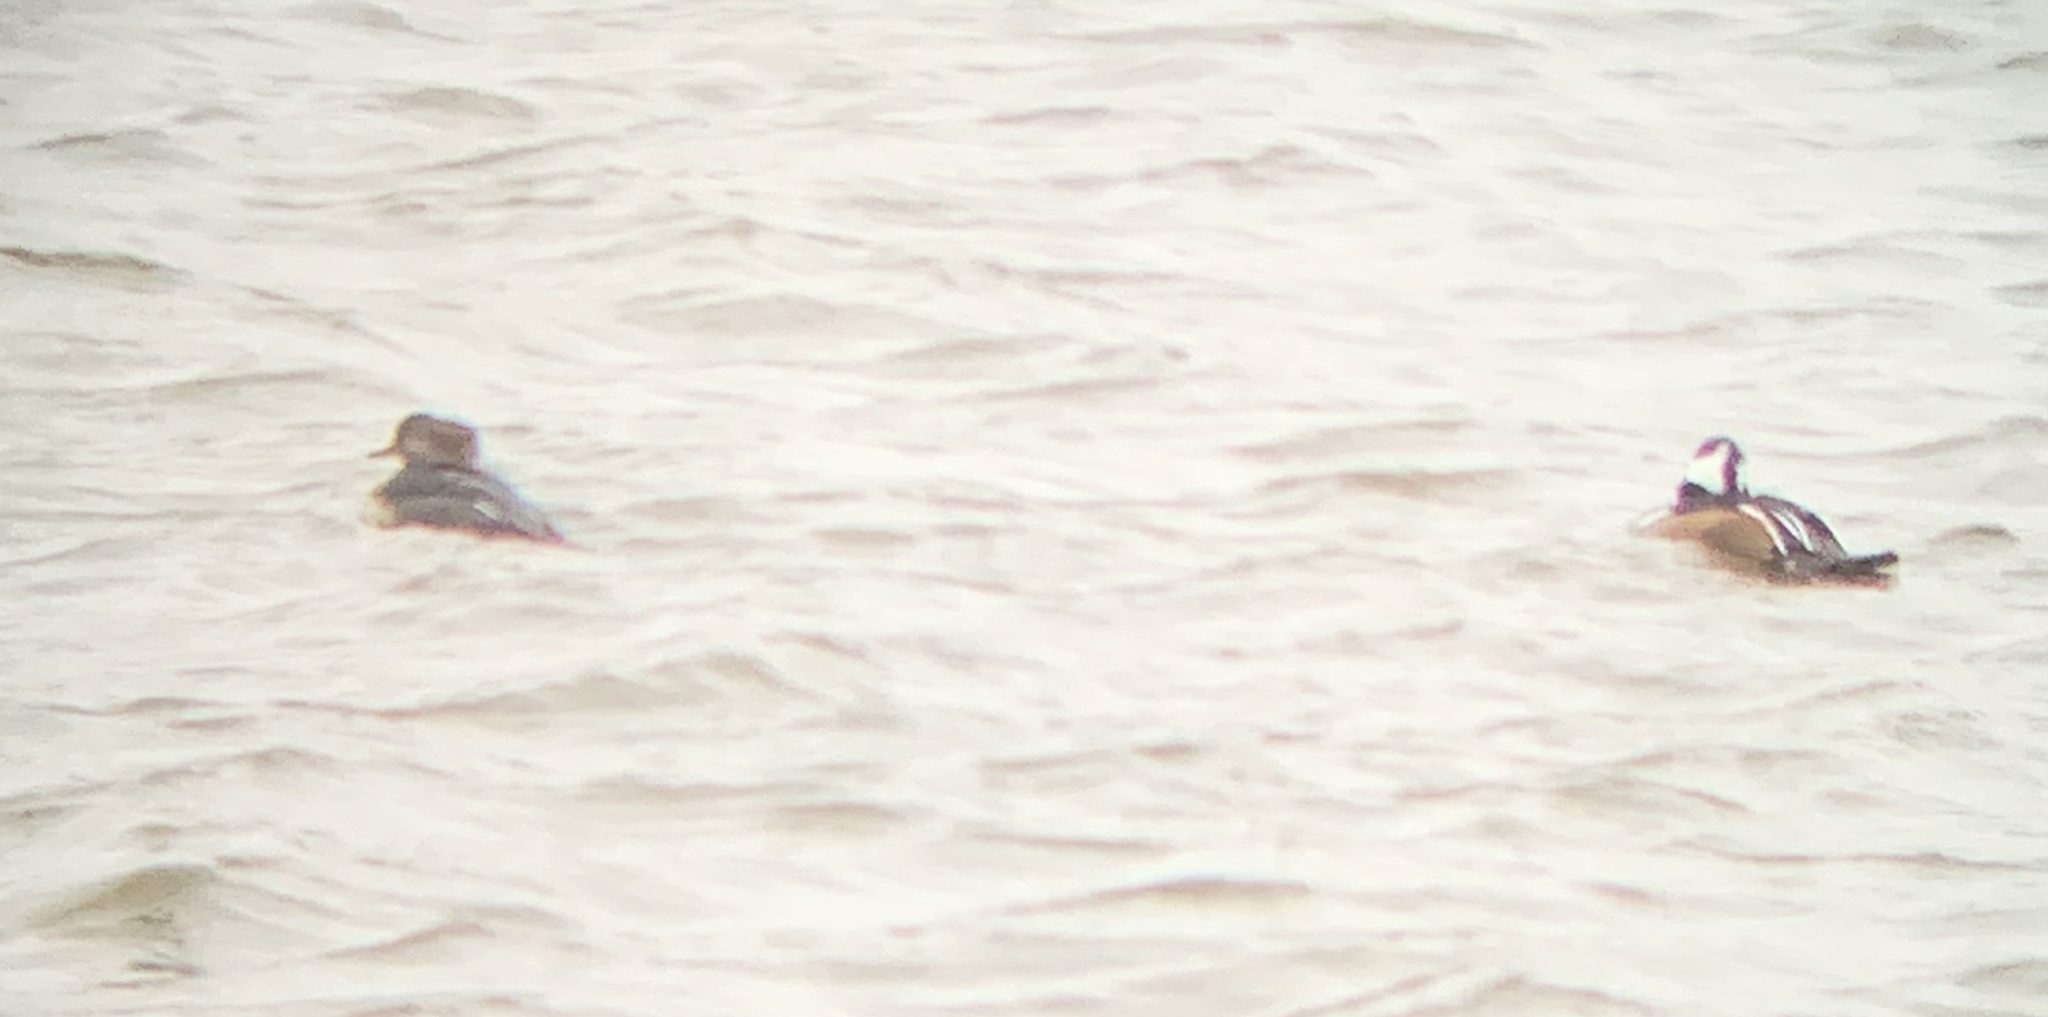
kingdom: Animalia
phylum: Chordata
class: Aves
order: Anseriformes
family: Anatidae
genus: Lophodytes
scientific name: Lophodytes cucullatus
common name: Hooded merganser
